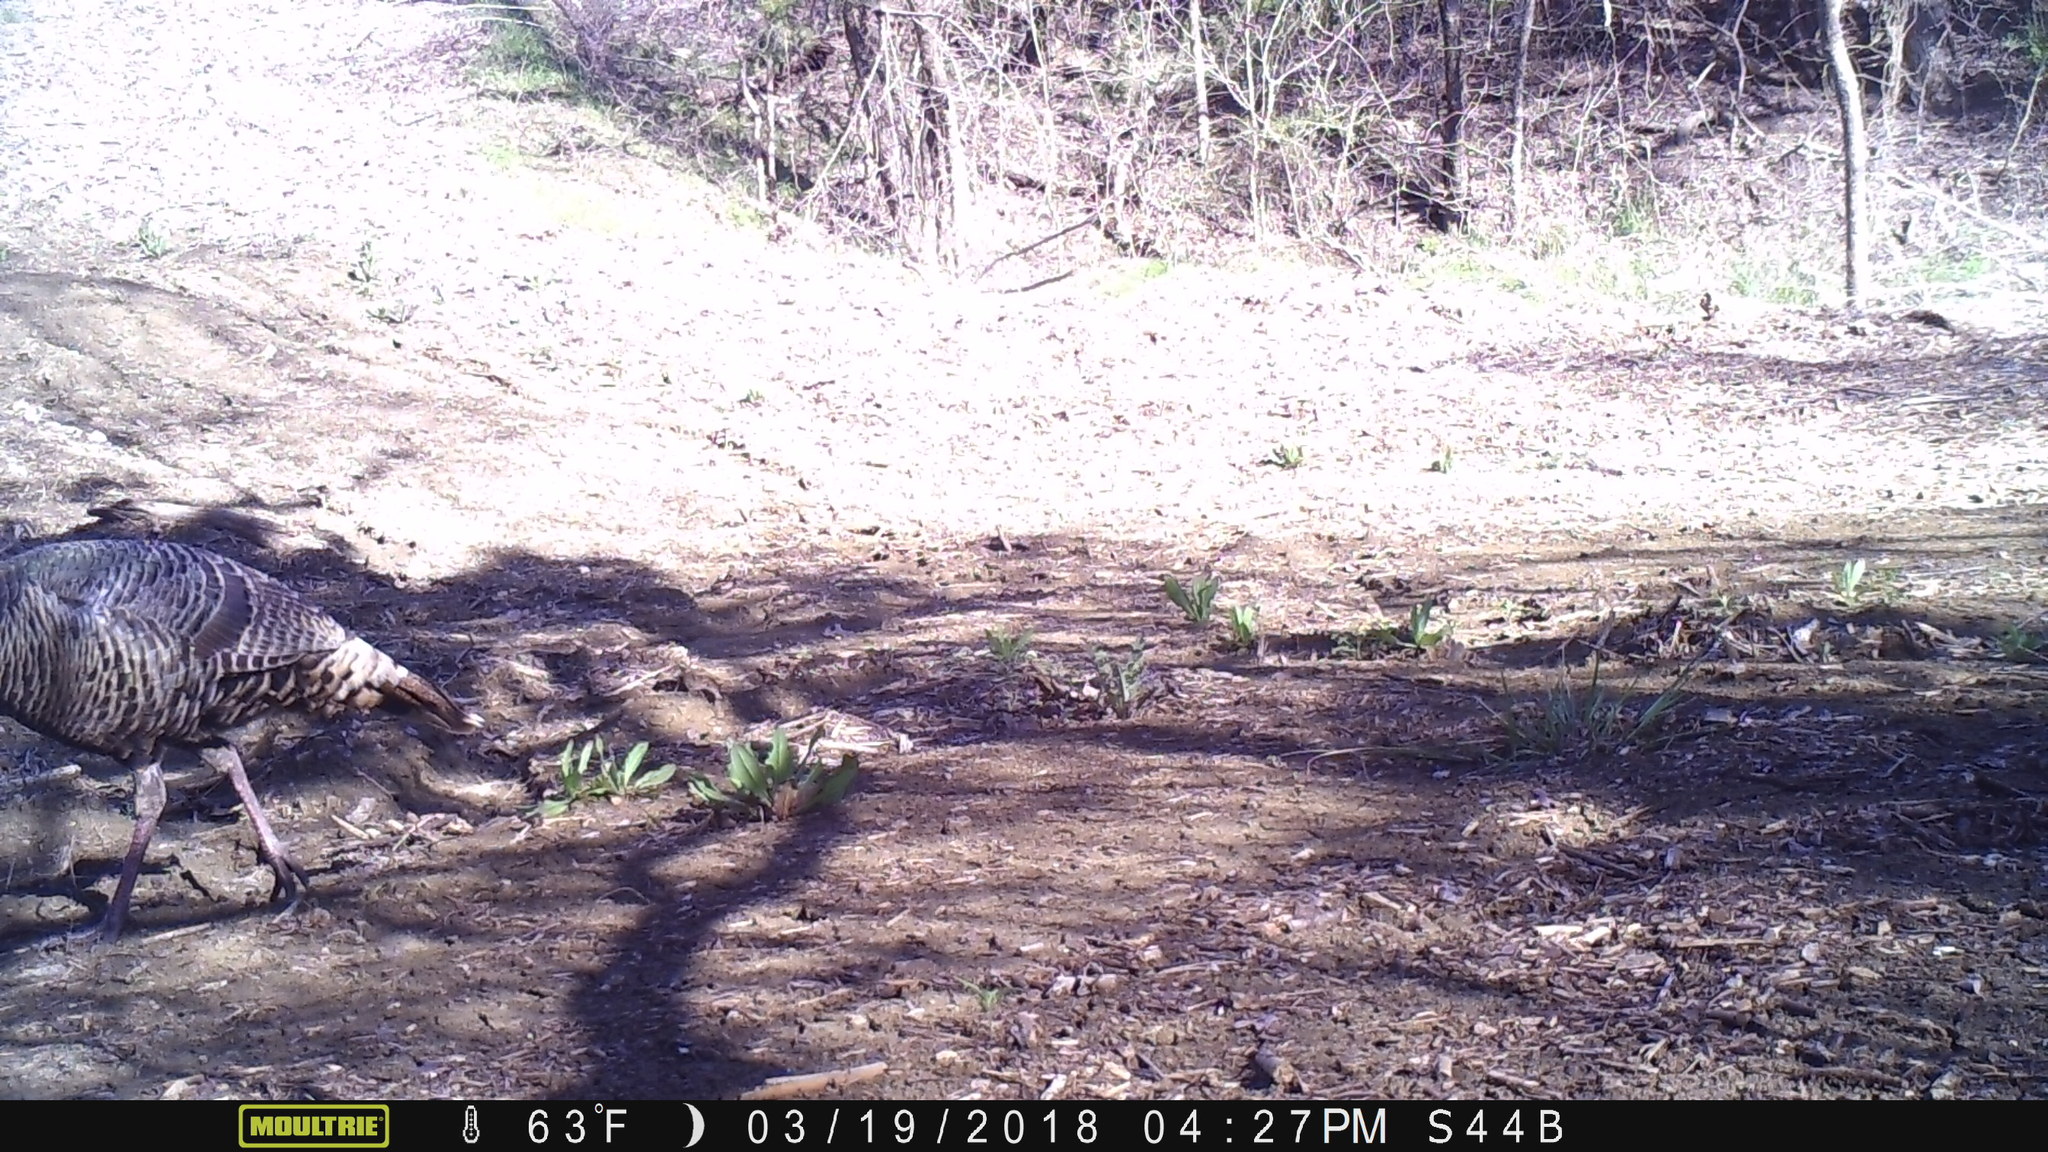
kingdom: Animalia
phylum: Chordata
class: Aves
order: Galliformes
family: Phasianidae
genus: Meleagris
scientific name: Meleagris gallopavo
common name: Wild turkey
